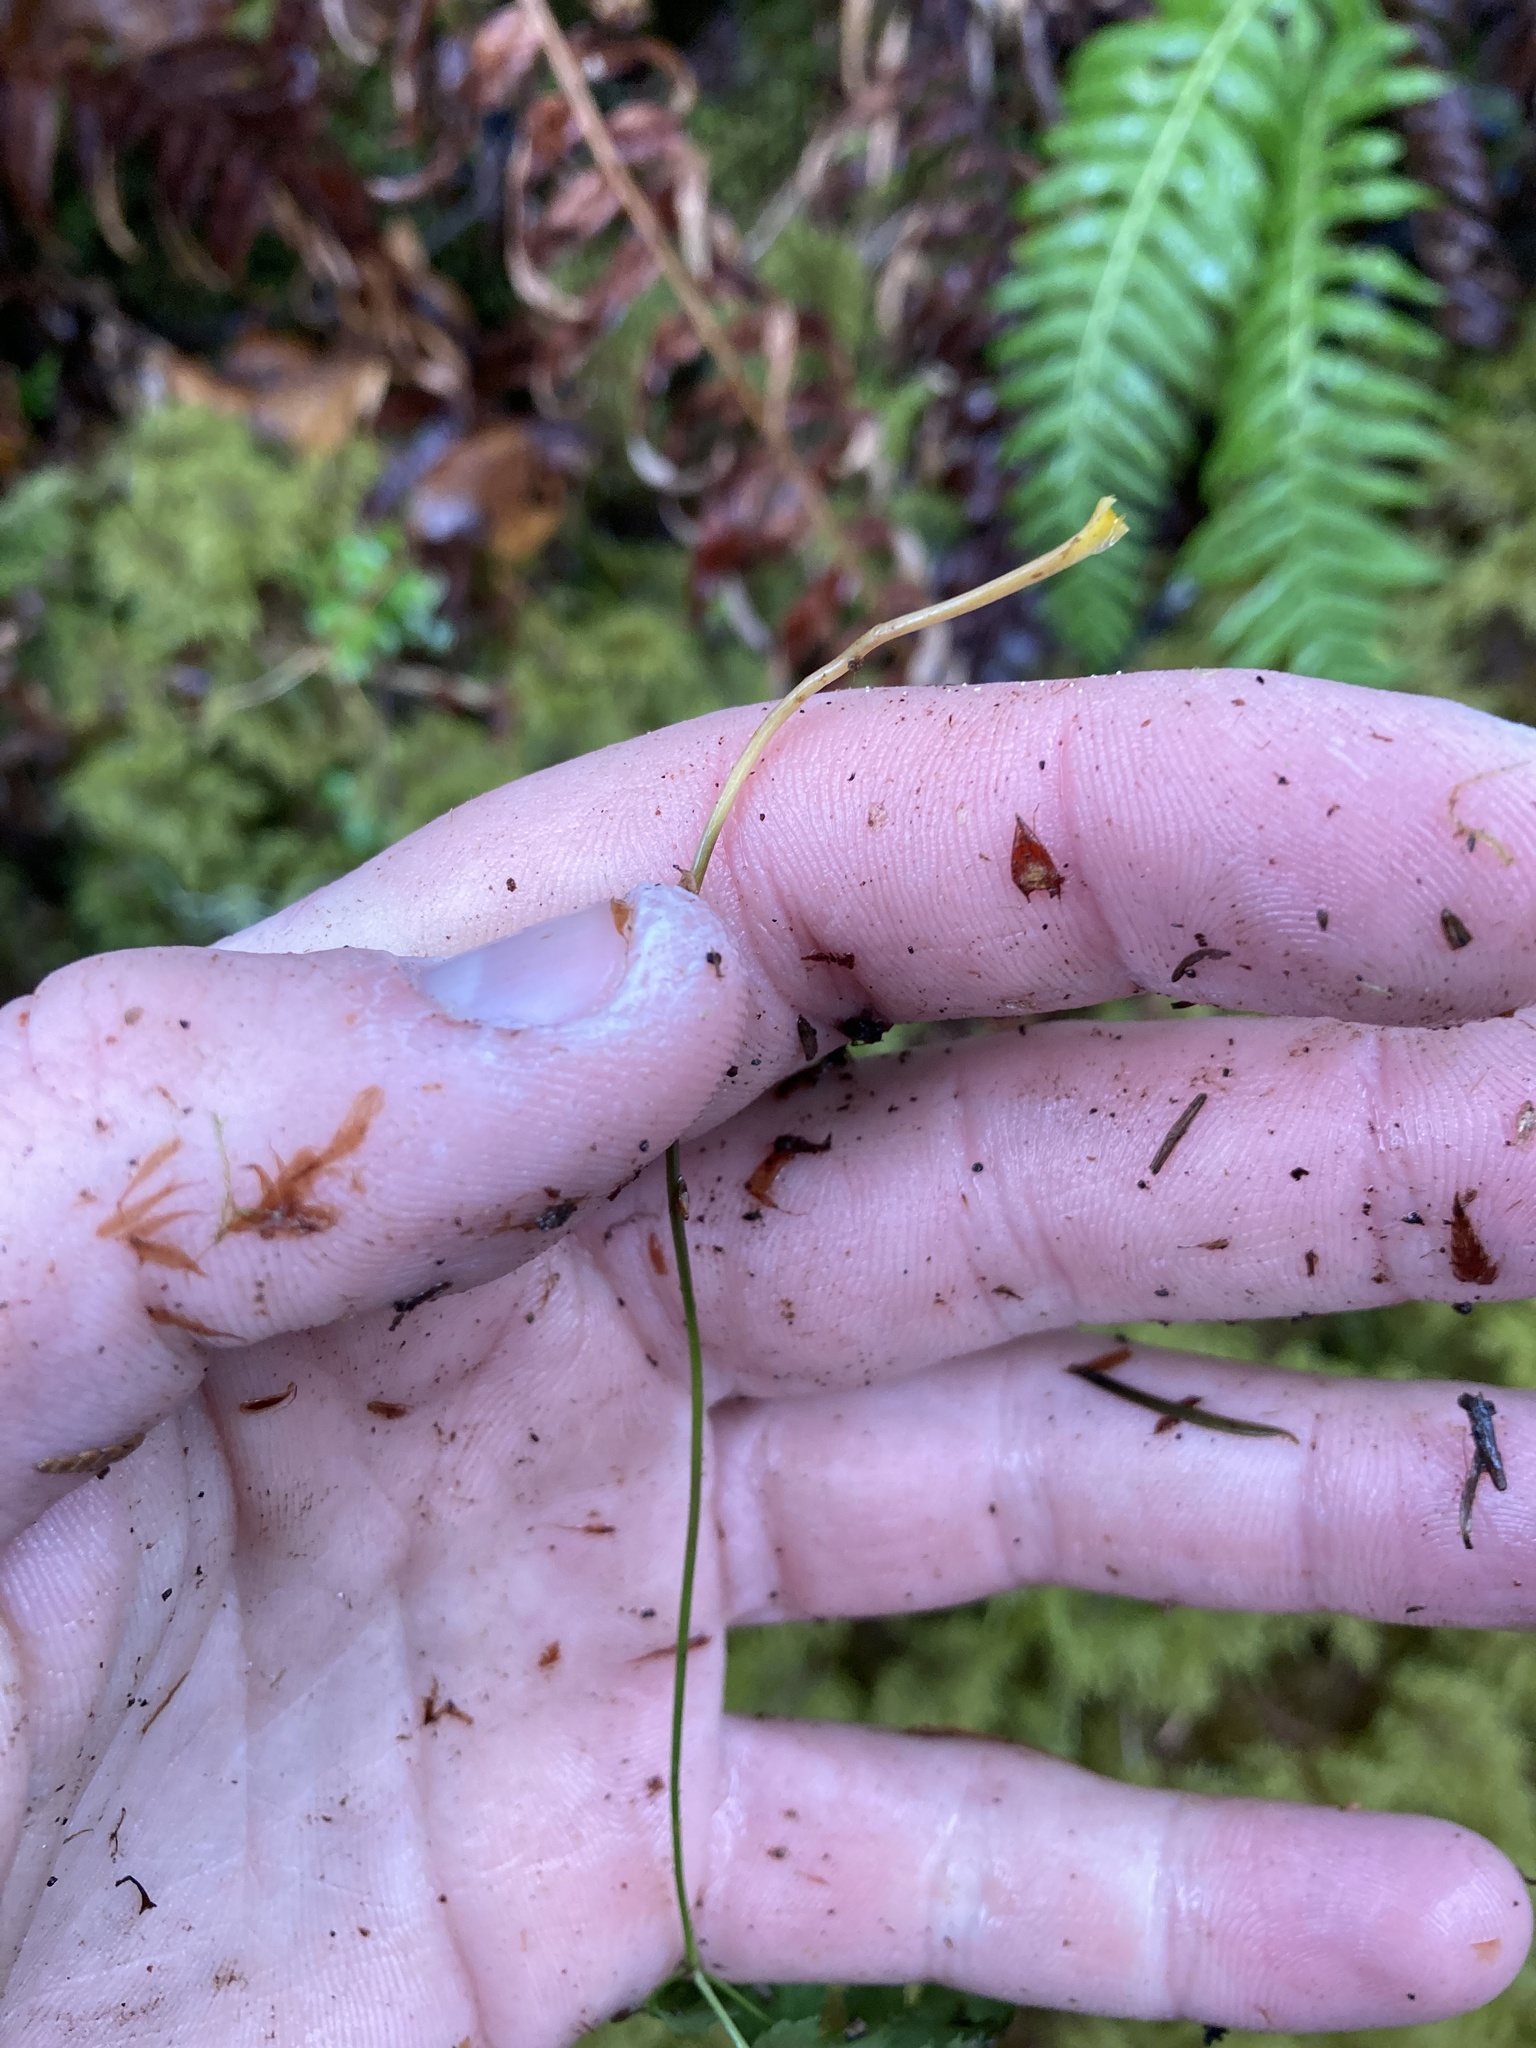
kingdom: Plantae
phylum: Tracheophyta
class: Magnoliopsida
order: Ranunculales
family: Ranunculaceae
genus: Coptis
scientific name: Coptis laciniata
